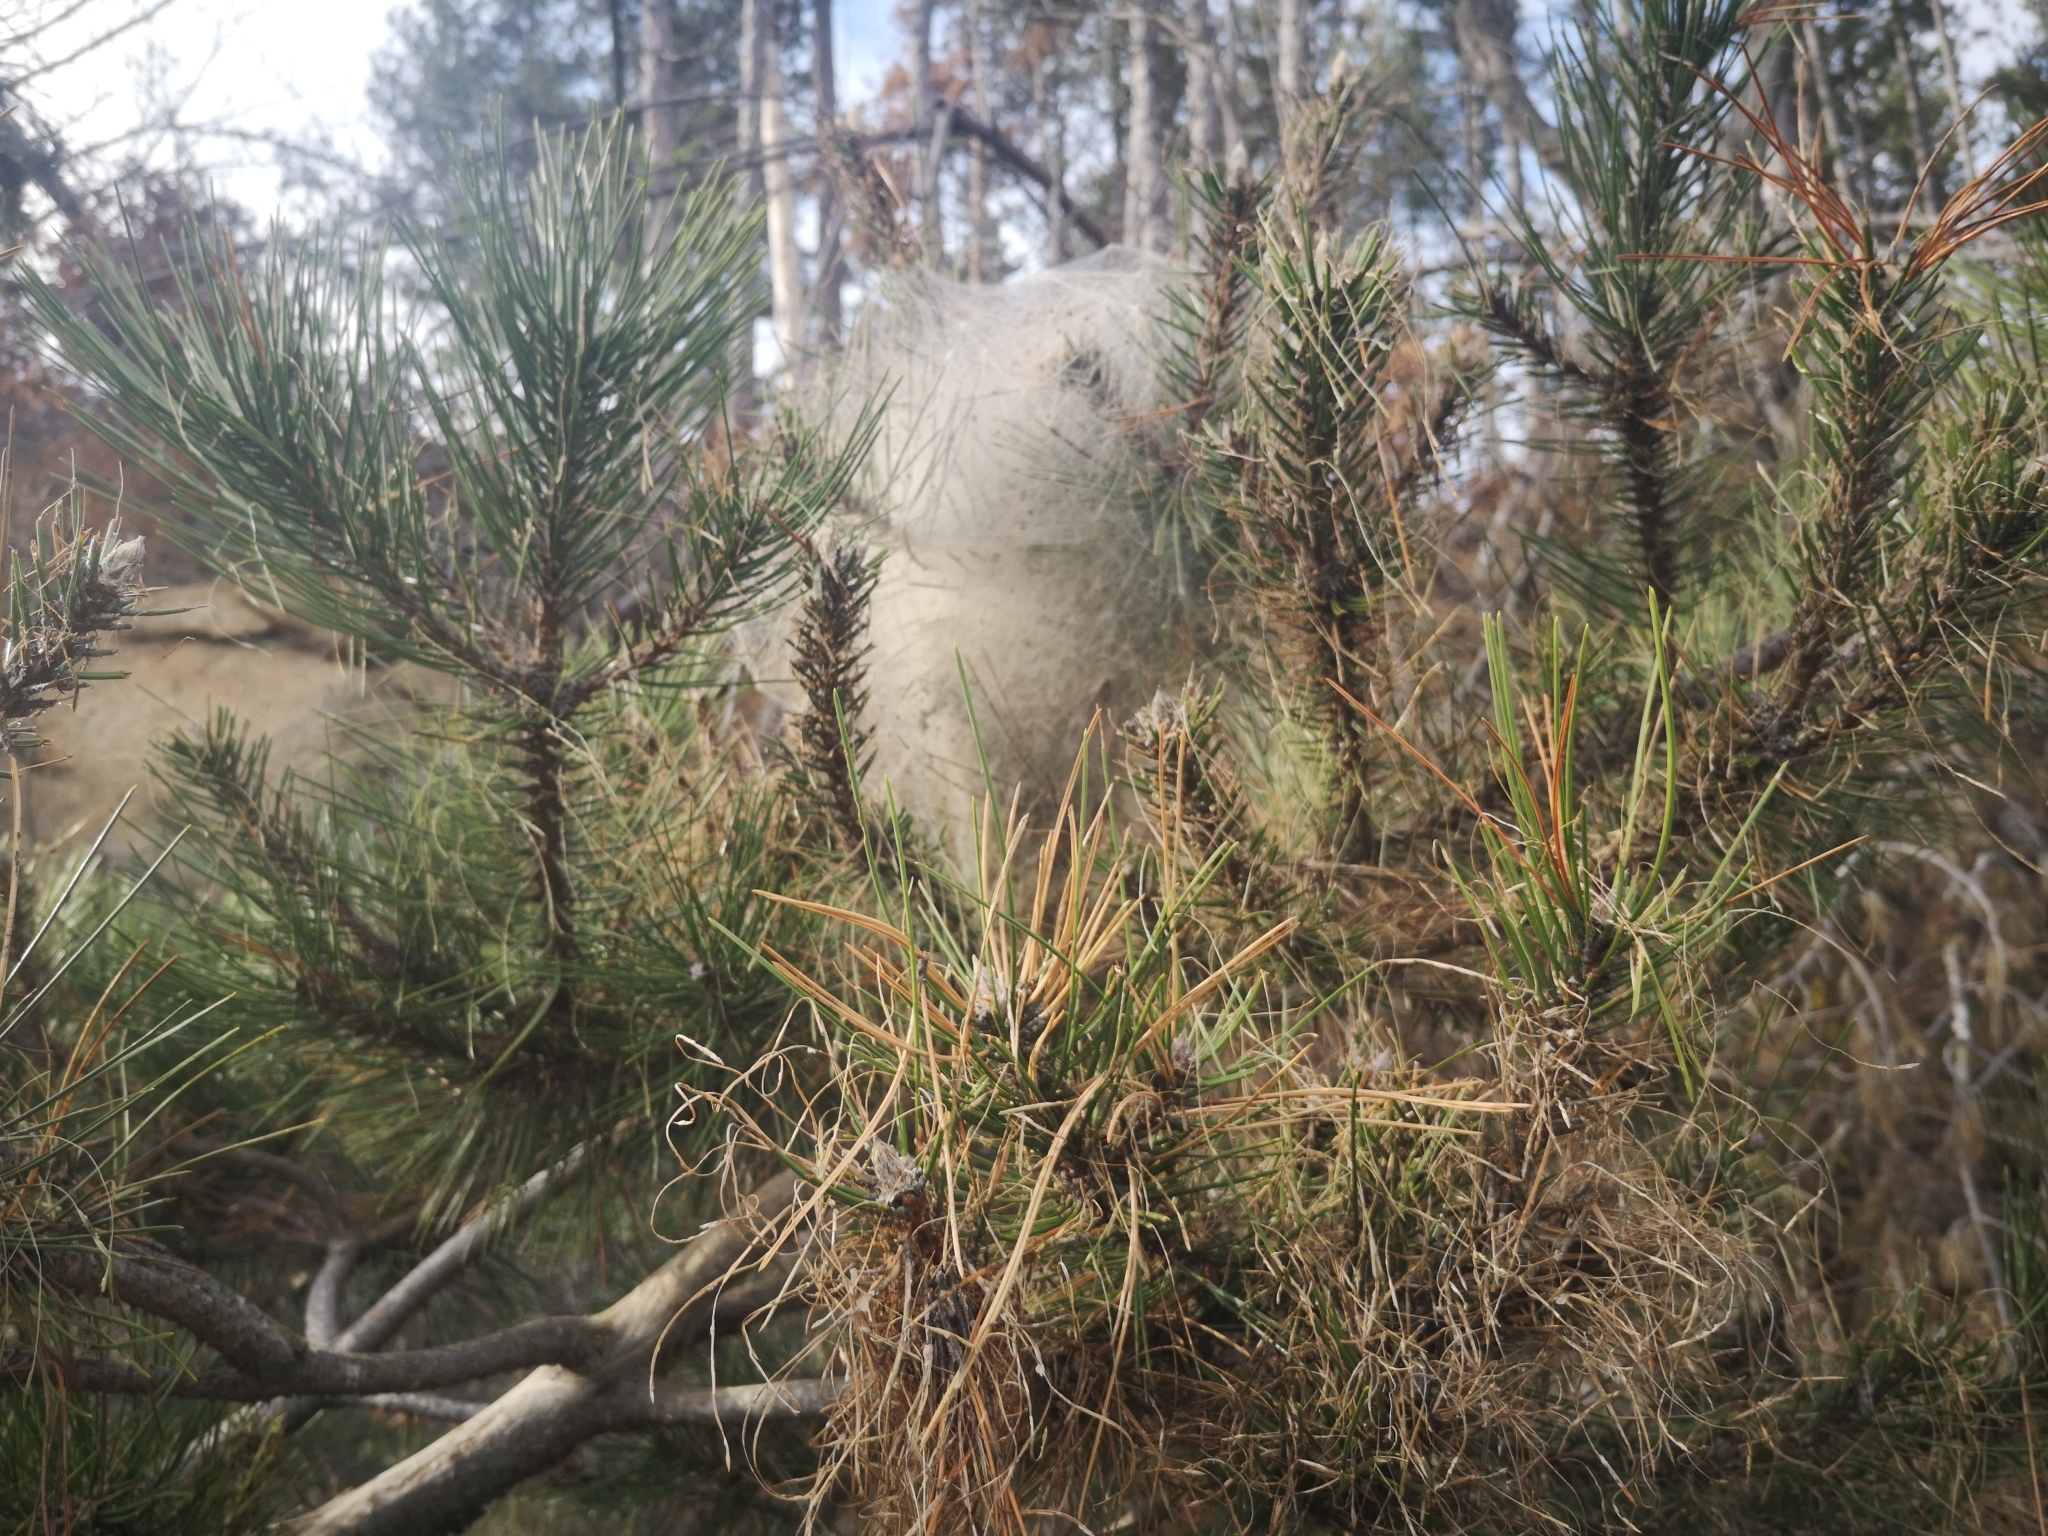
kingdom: Animalia
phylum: Arthropoda
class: Insecta
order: Lepidoptera
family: Notodontidae
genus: Thaumetopoea
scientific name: Thaumetopoea pityocampa
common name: Pine processionary
